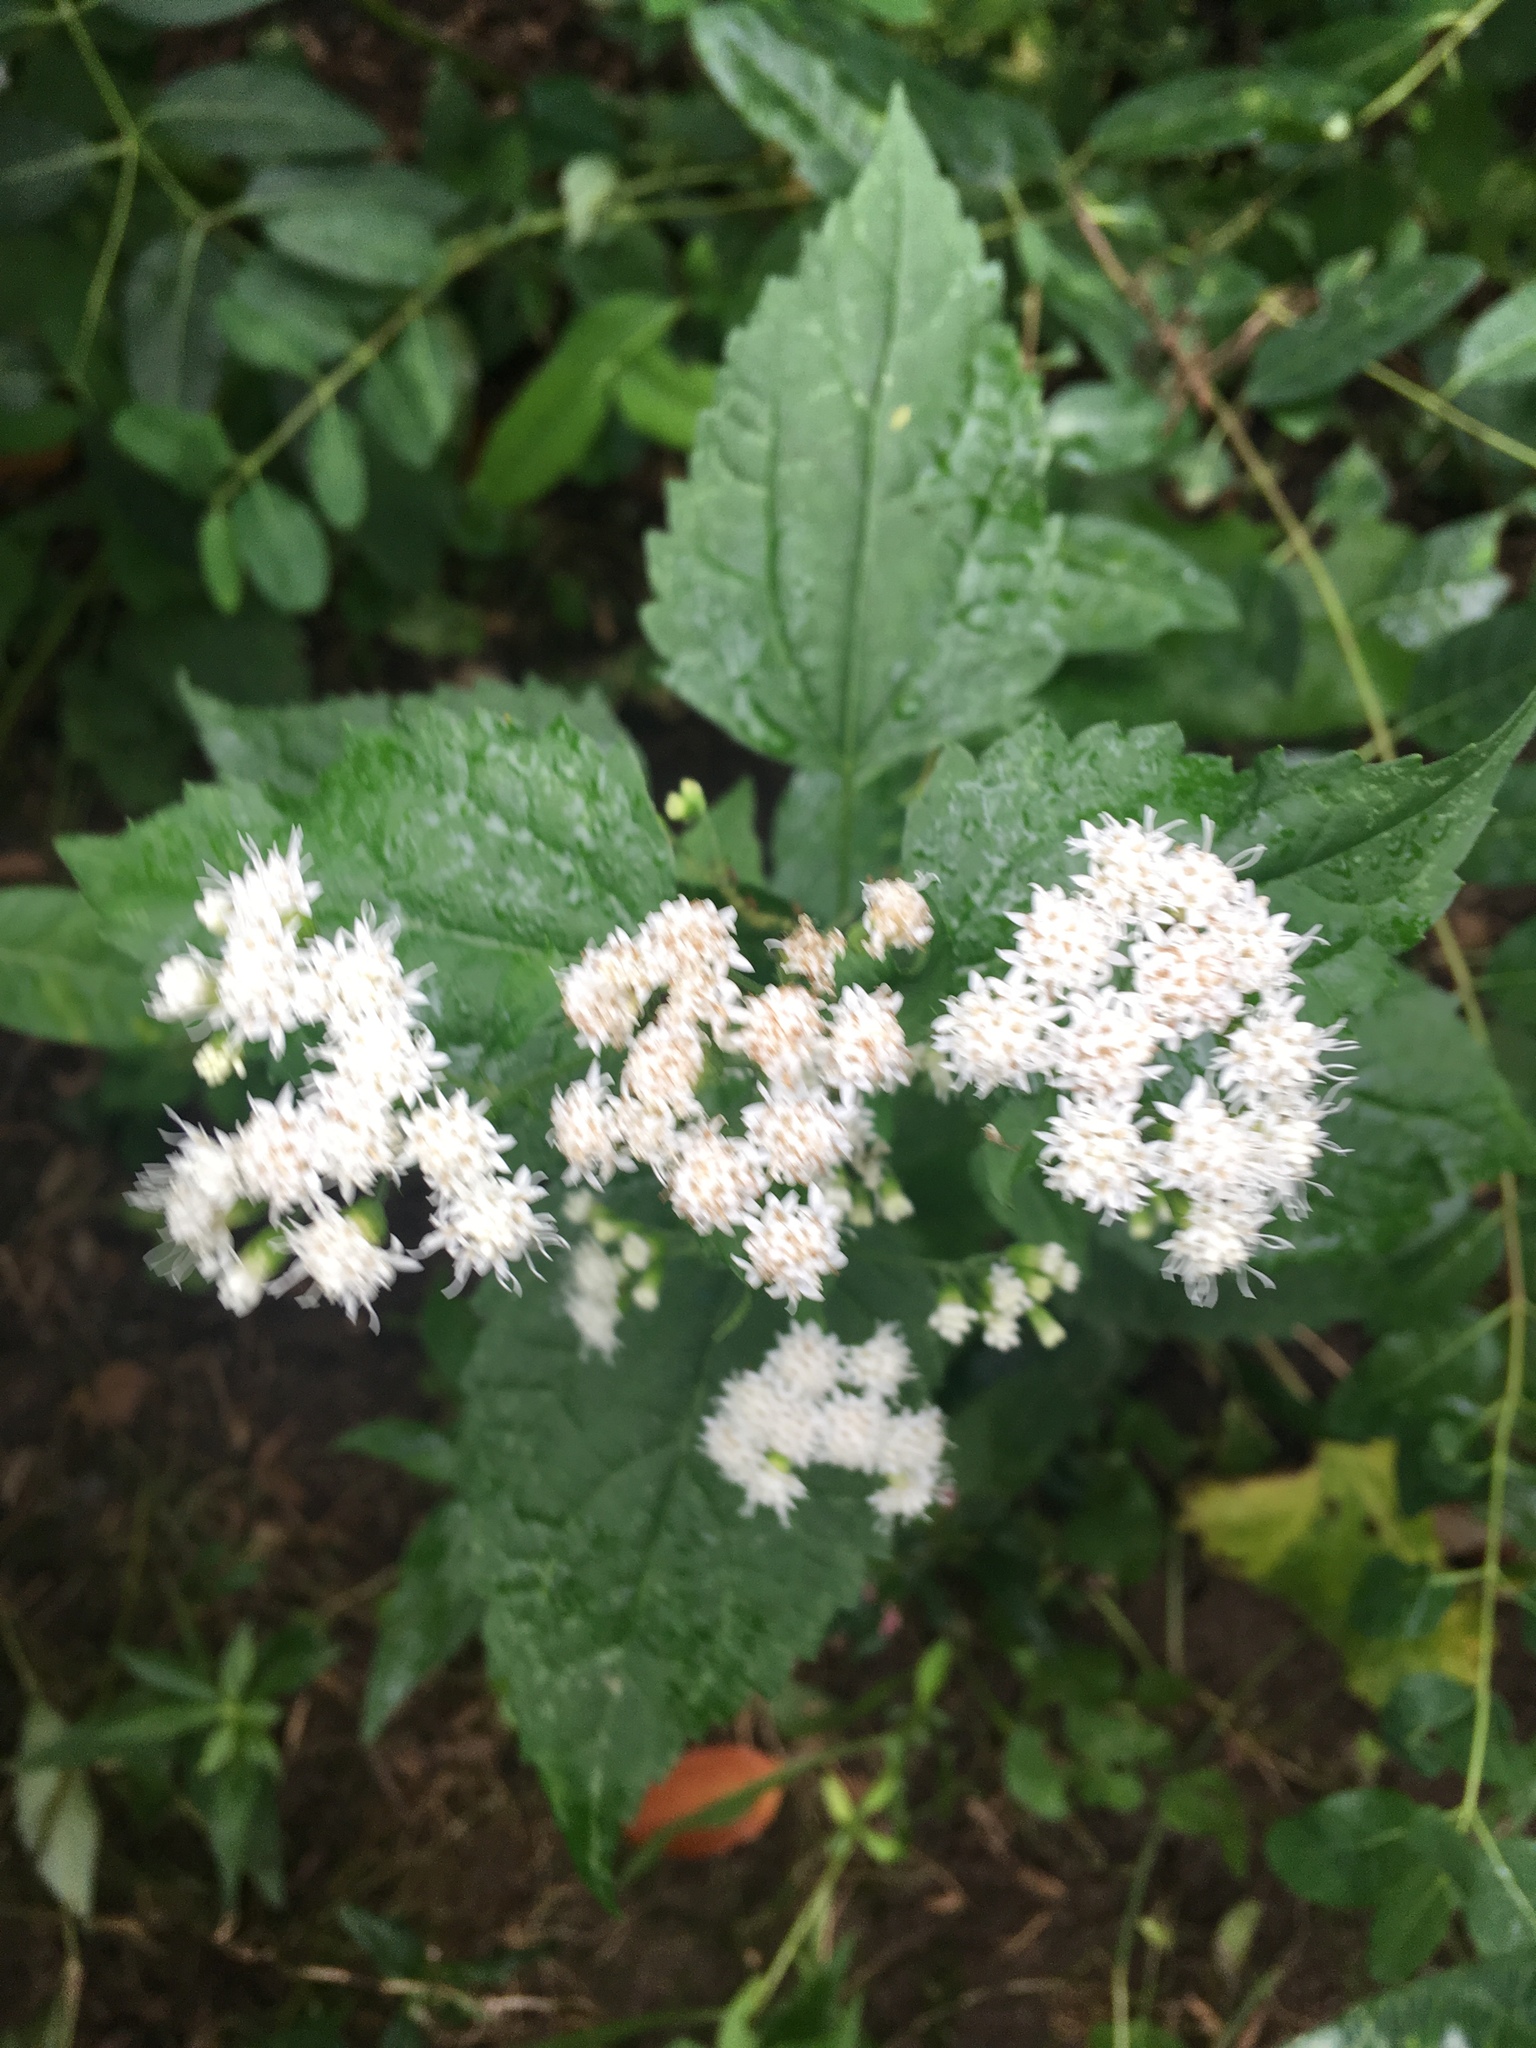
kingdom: Plantae
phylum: Tracheophyta
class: Magnoliopsida
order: Asterales
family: Asteraceae
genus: Ageratina
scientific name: Ageratina altissima
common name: White snakeroot
